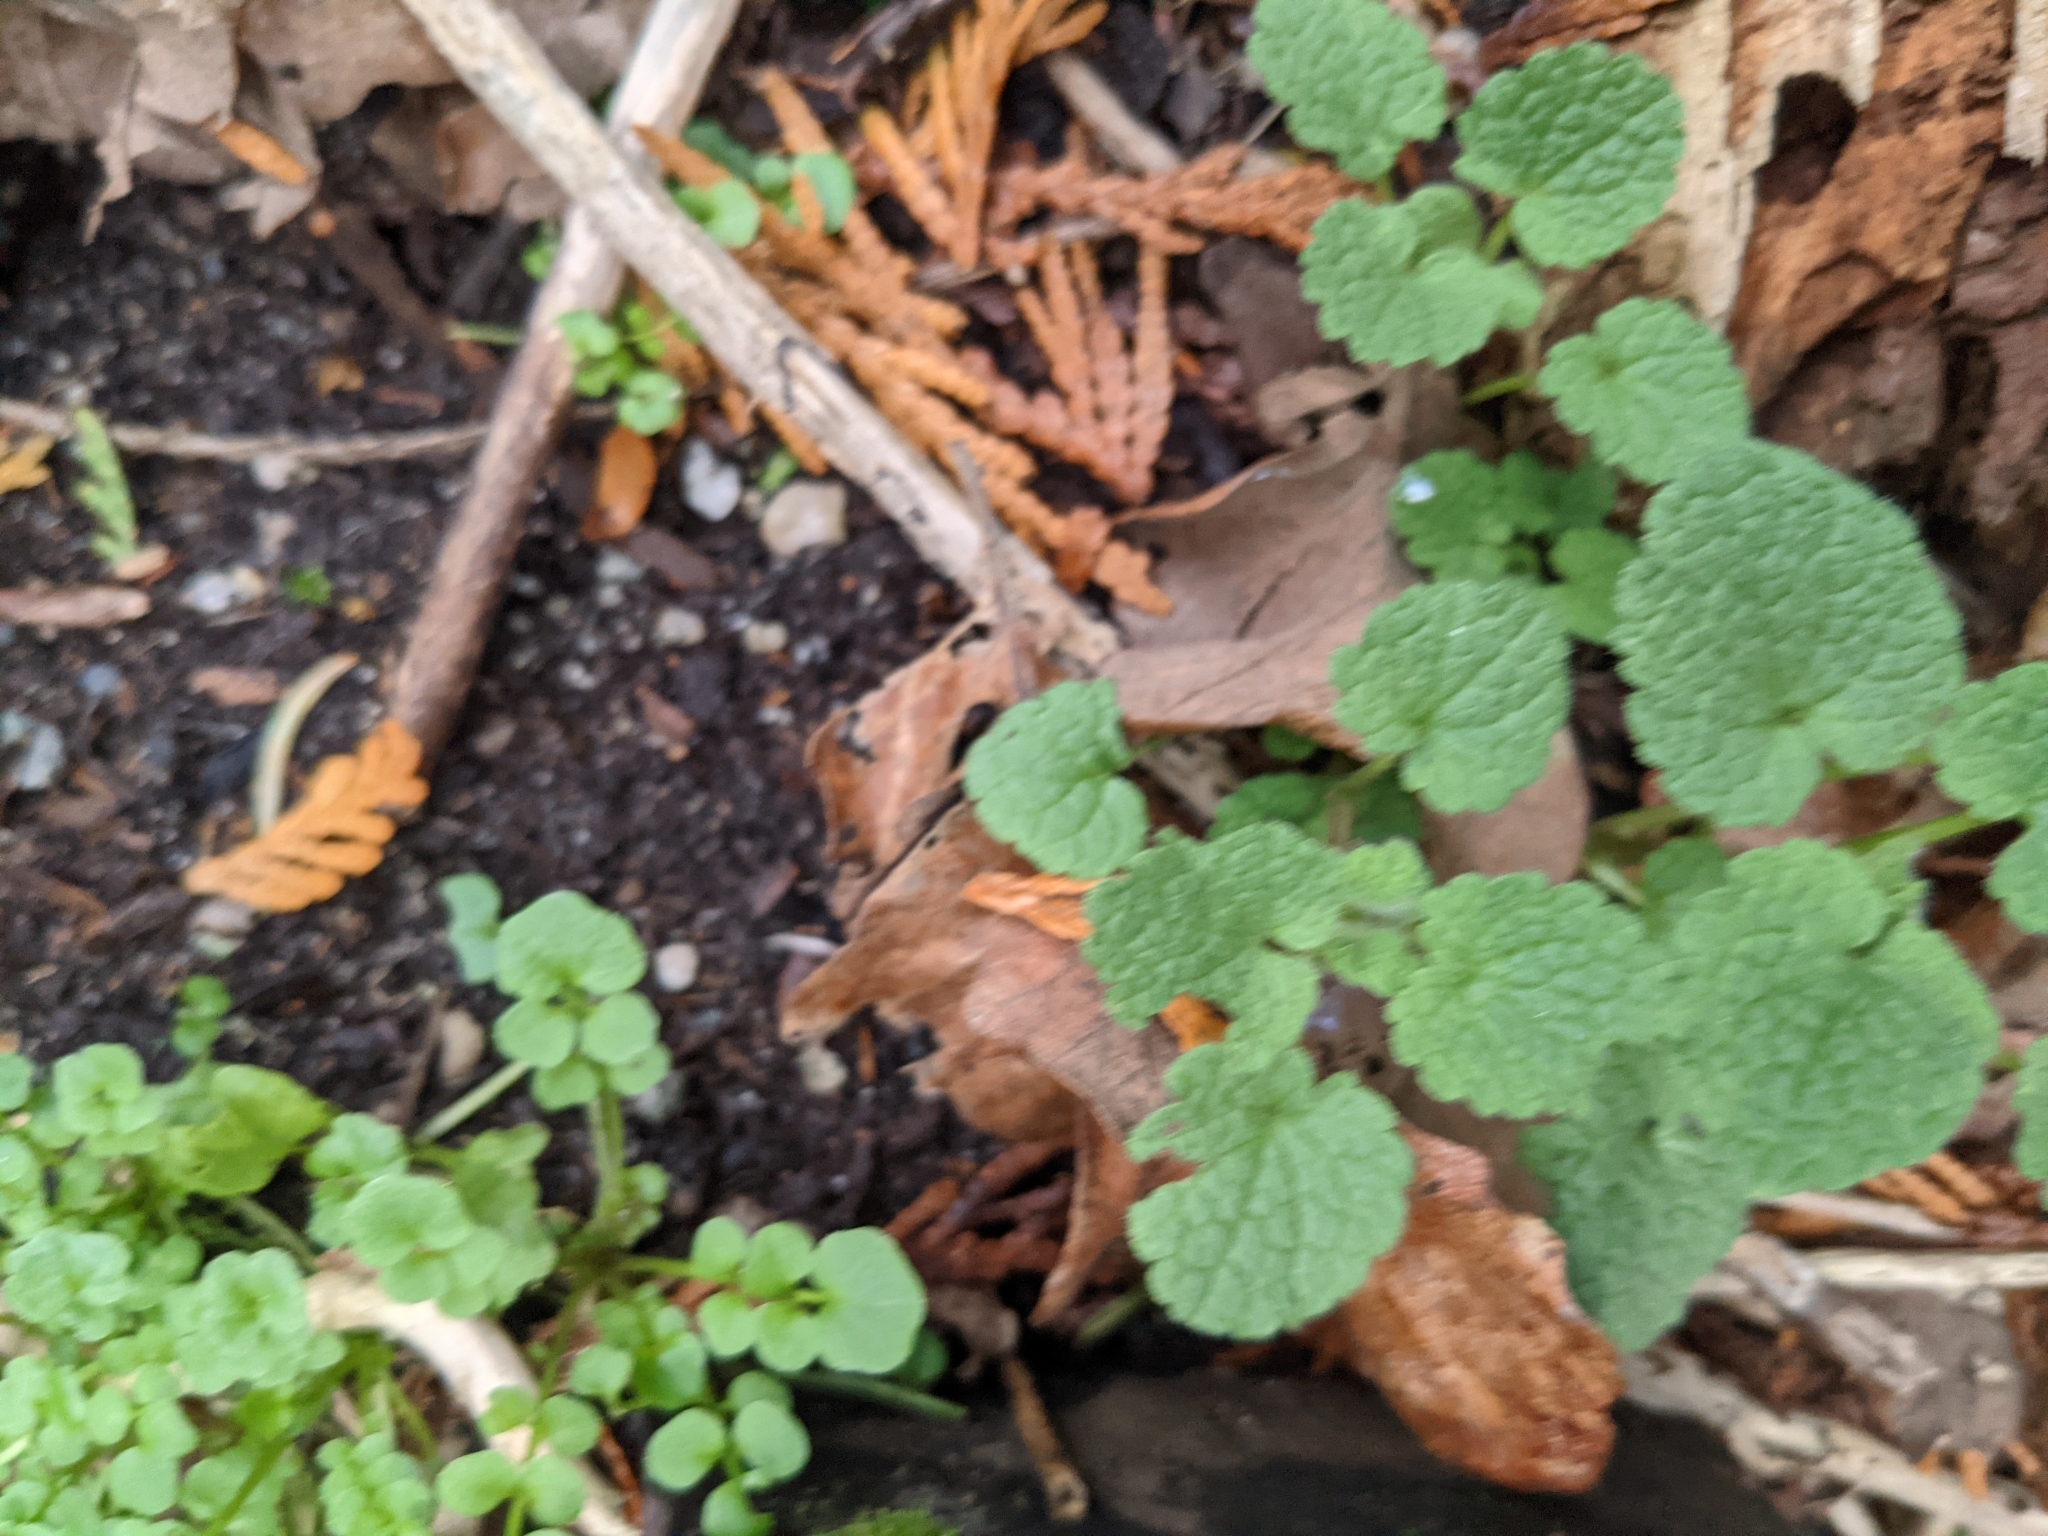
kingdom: Plantae
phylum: Tracheophyta
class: Magnoliopsida
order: Lamiales
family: Lamiaceae
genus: Lamium
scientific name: Lamium purpureum
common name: Red dead-nettle
